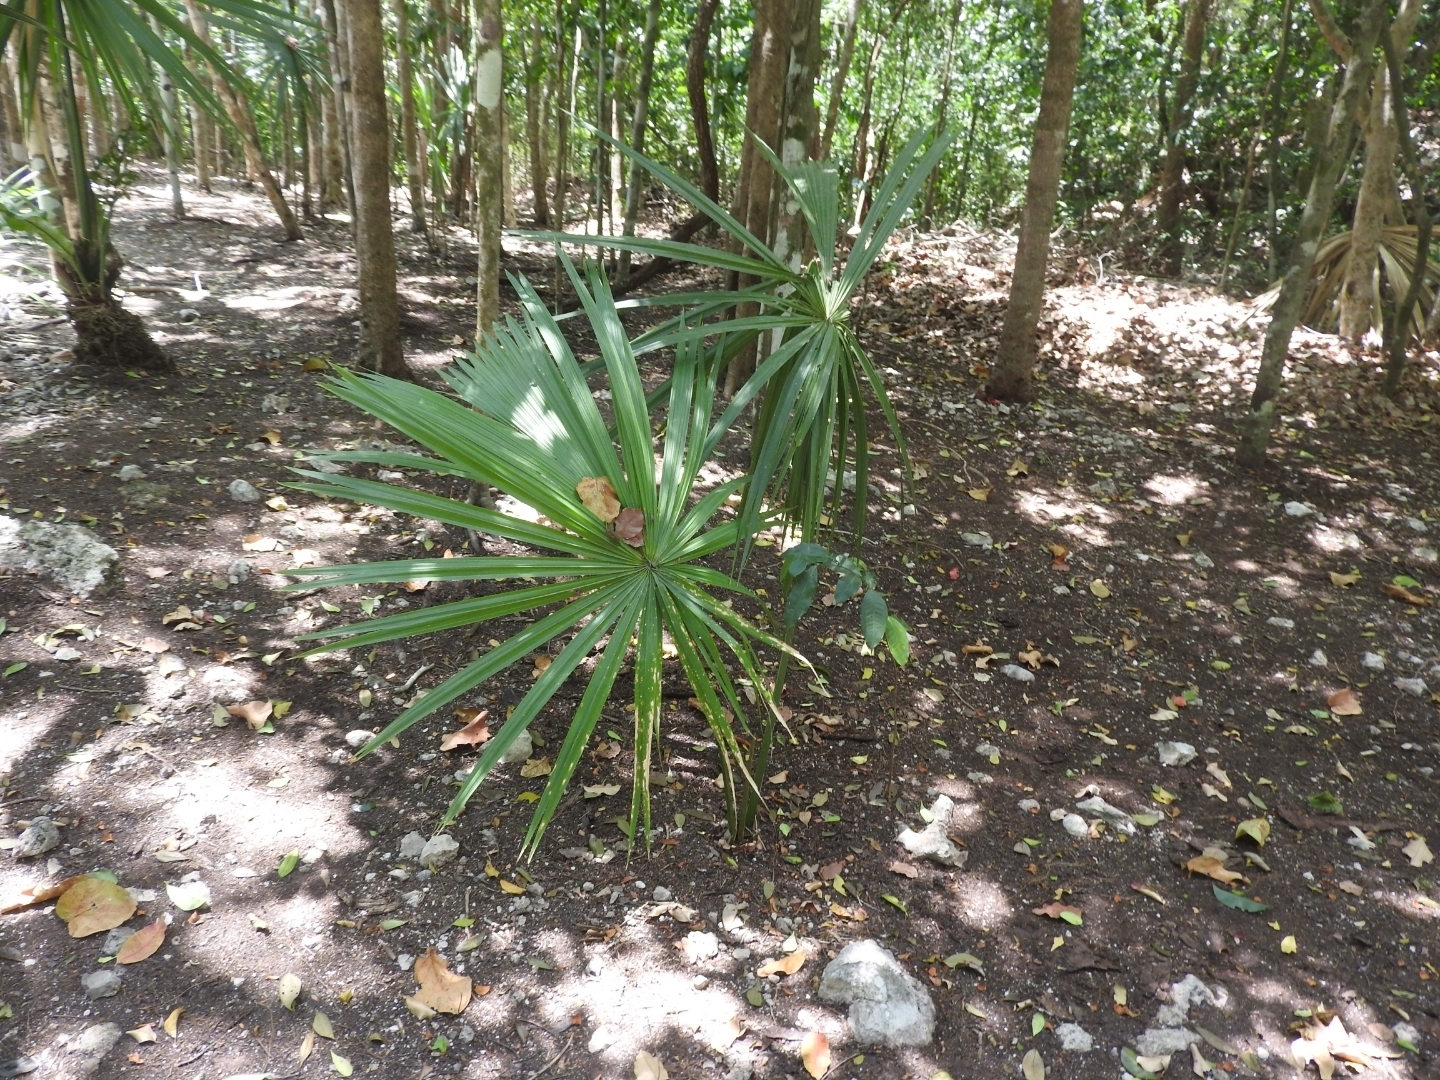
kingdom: Plantae
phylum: Tracheophyta
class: Liliopsida
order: Arecales
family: Arecaceae
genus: Sabal
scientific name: Sabal yapa
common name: Thatch palm
